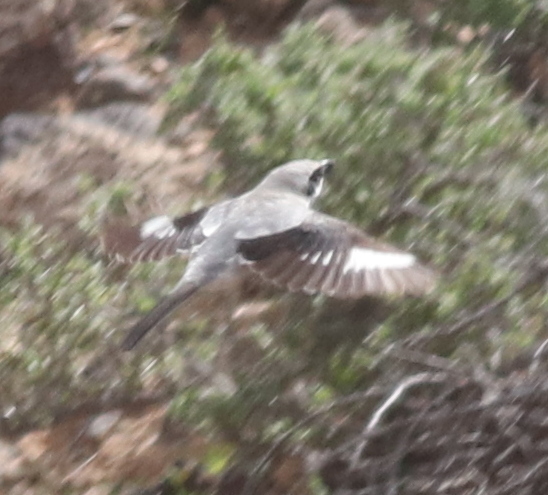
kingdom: Animalia
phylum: Chordata
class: Aves
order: Passeriformes
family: Laniidae
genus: Lanius
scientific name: Lanius excubitor
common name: Great grey shrike
